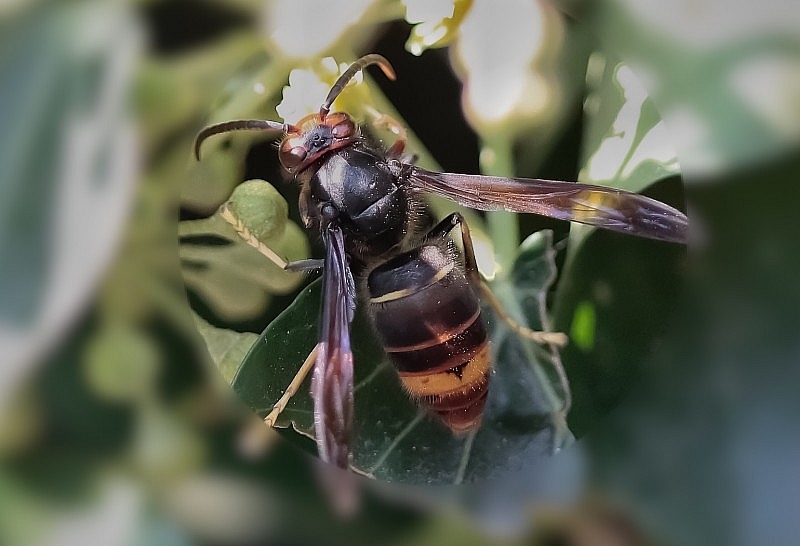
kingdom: Animalia
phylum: Arthropoda
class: Insecta
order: Hymenoptera
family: Vespidae
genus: Vespa
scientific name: Vespa velutina
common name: Asian hornet
